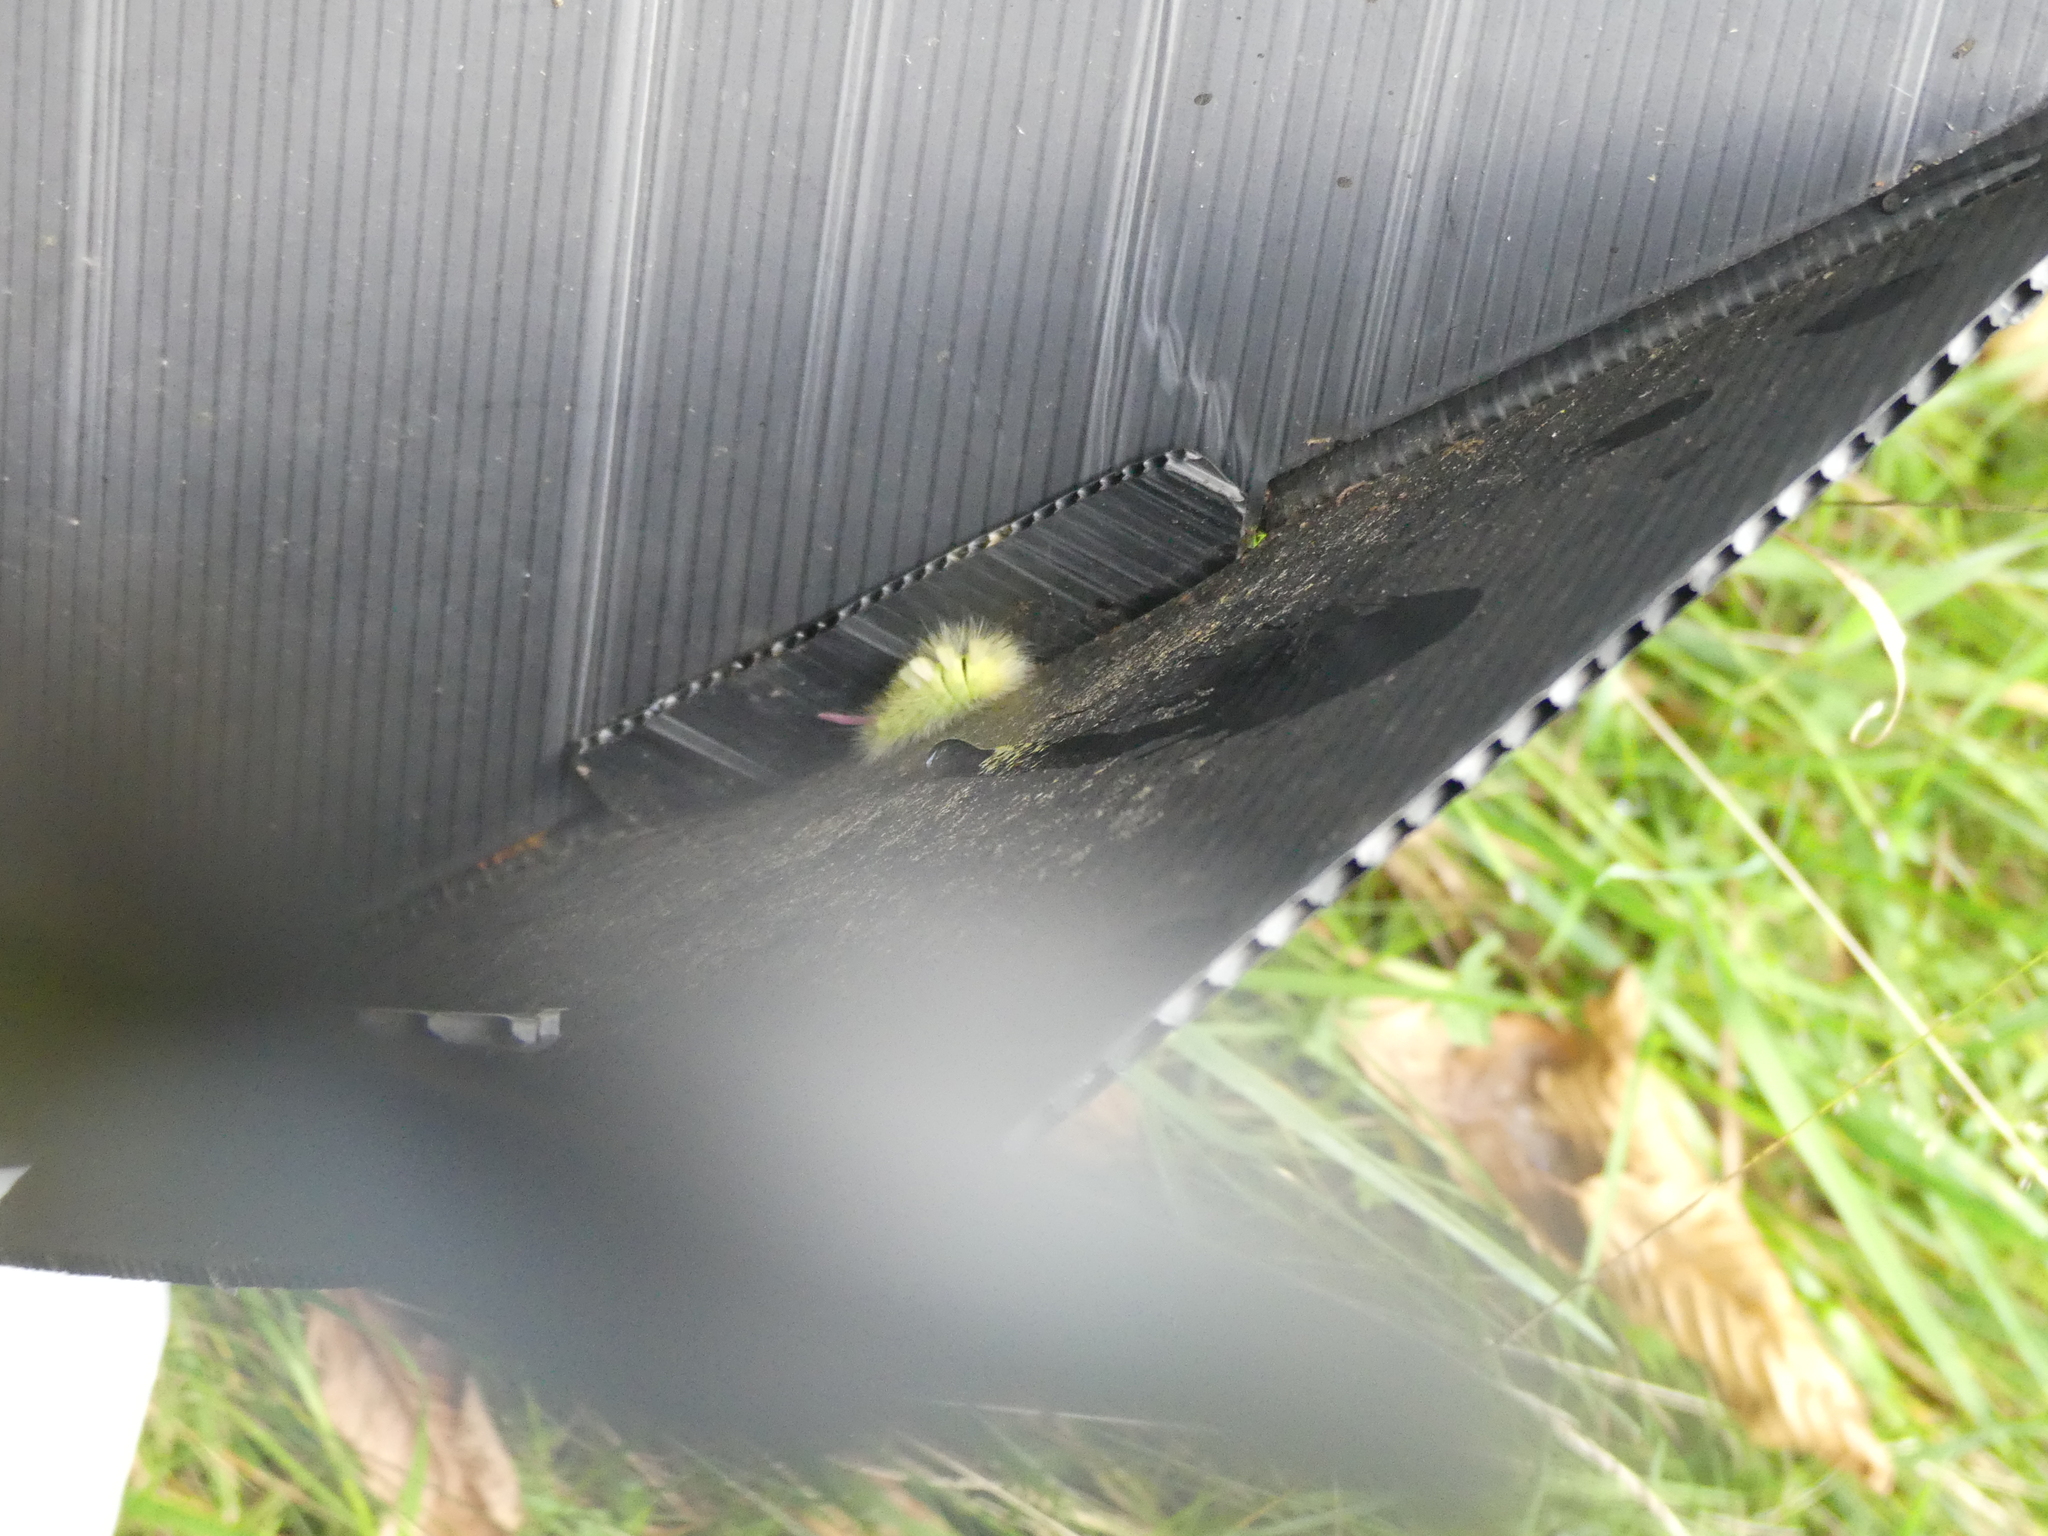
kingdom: Animalia
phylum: Arthropoda
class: Insecta
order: Lepidoptera
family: Erebidae
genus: Calliteara
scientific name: Calliteara pudibunda
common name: Pale tussock
